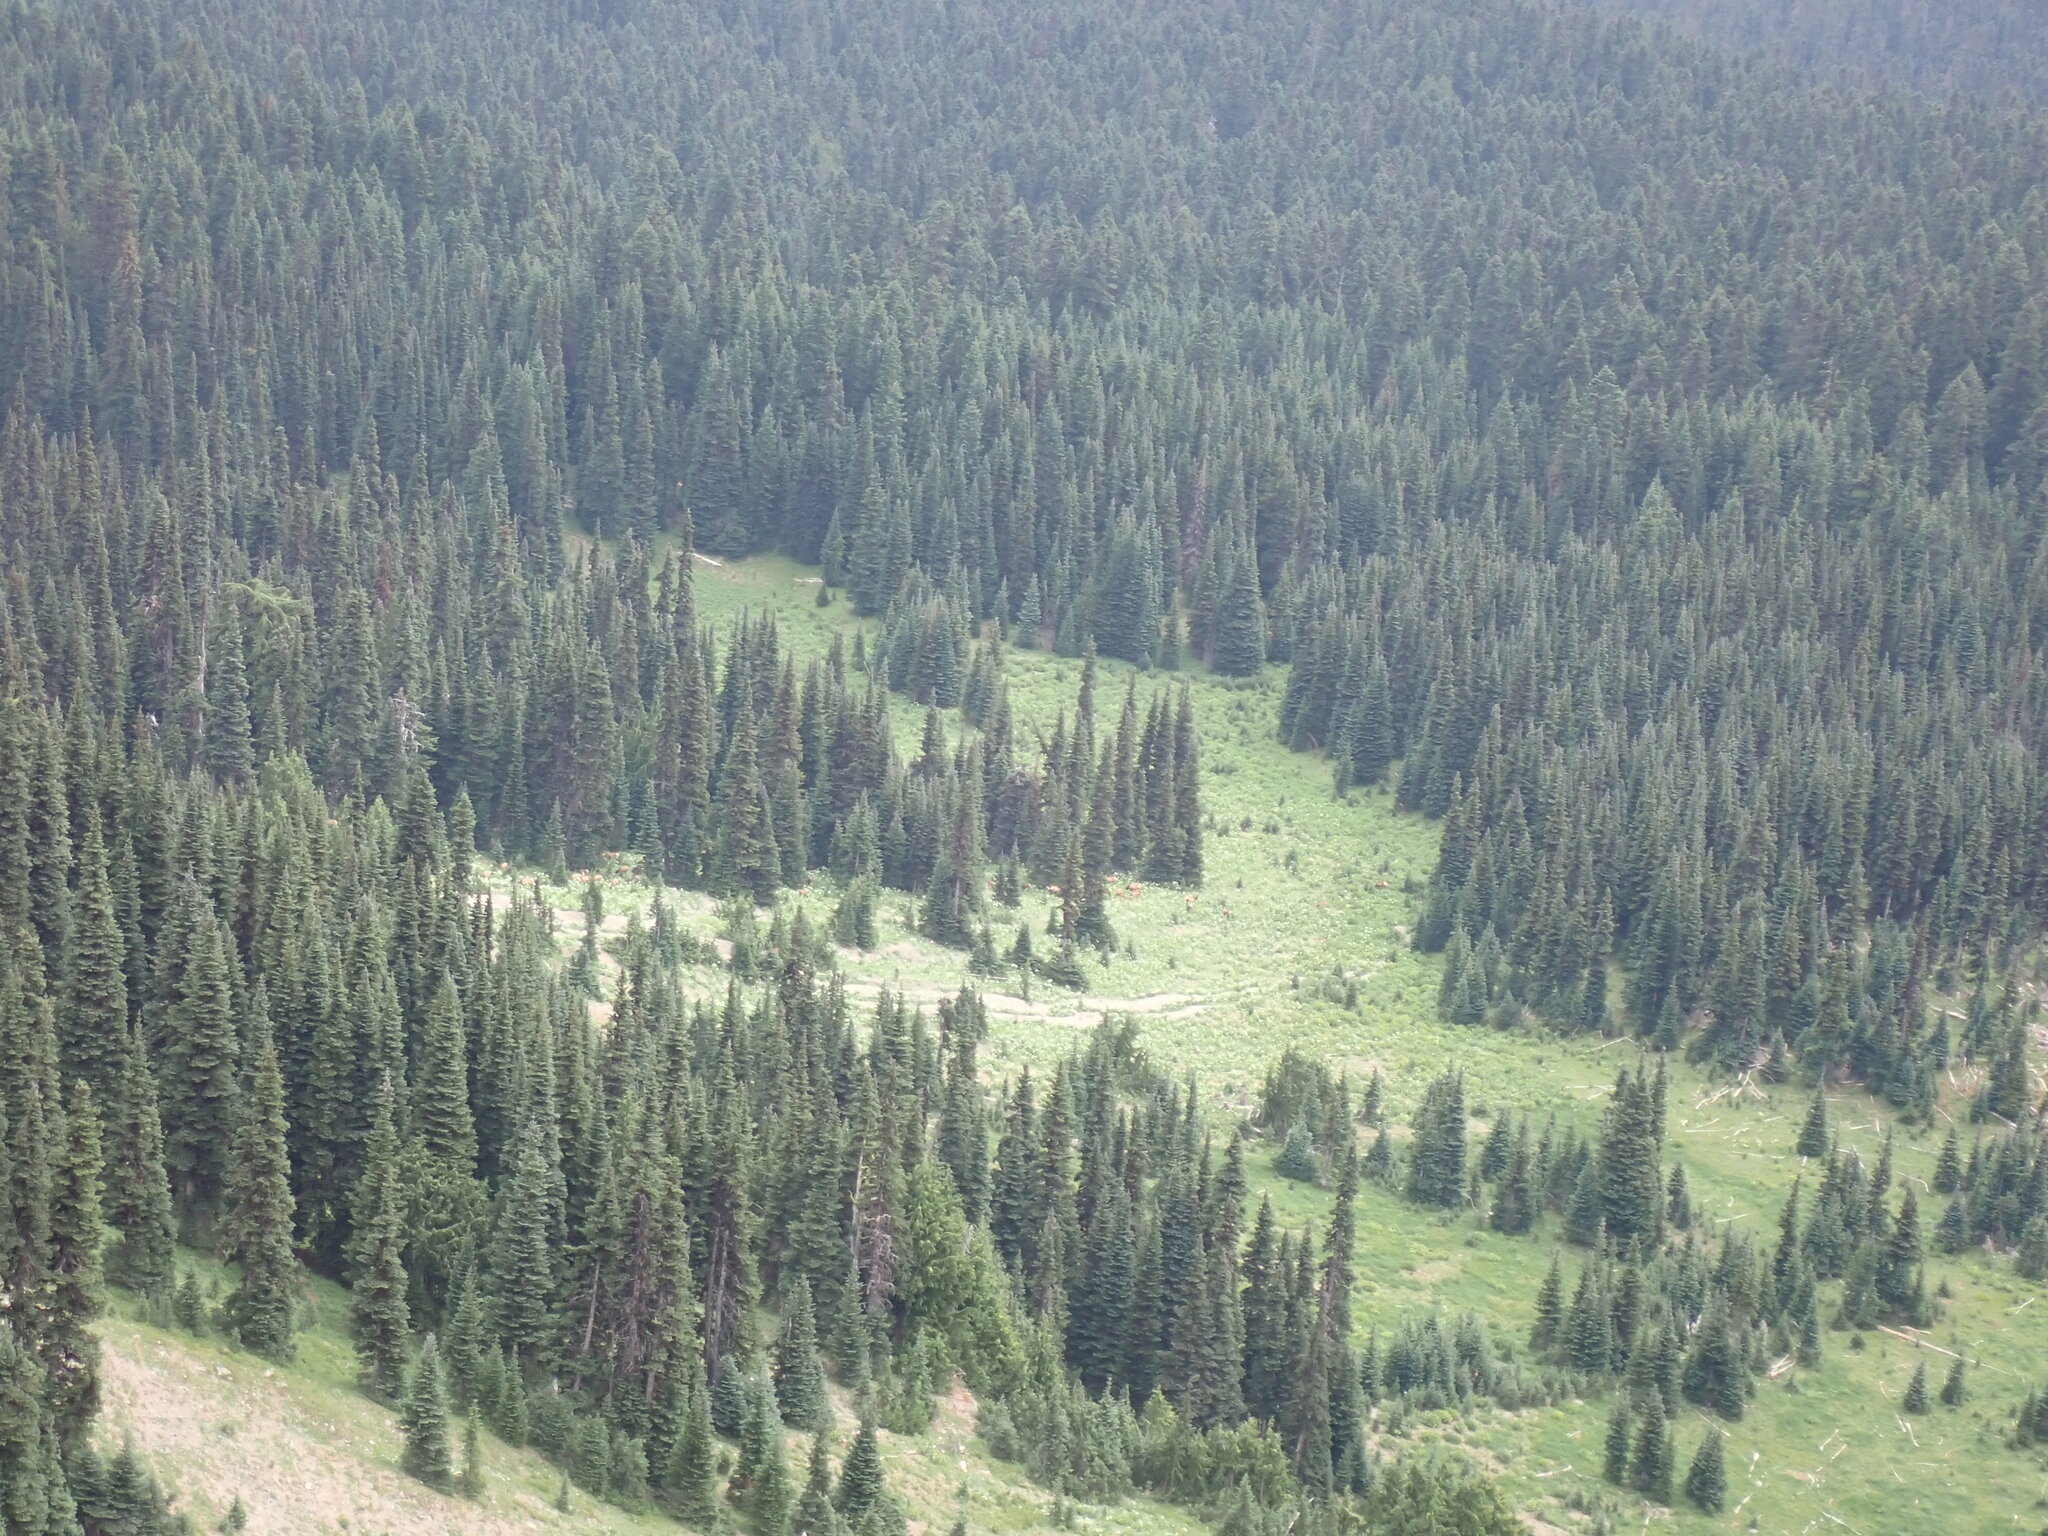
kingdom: Animalia
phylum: Chordata
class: Mammalia
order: Artiodactyla
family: Cervidae
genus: Cervus
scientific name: Cervus elaphus
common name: Red deer
